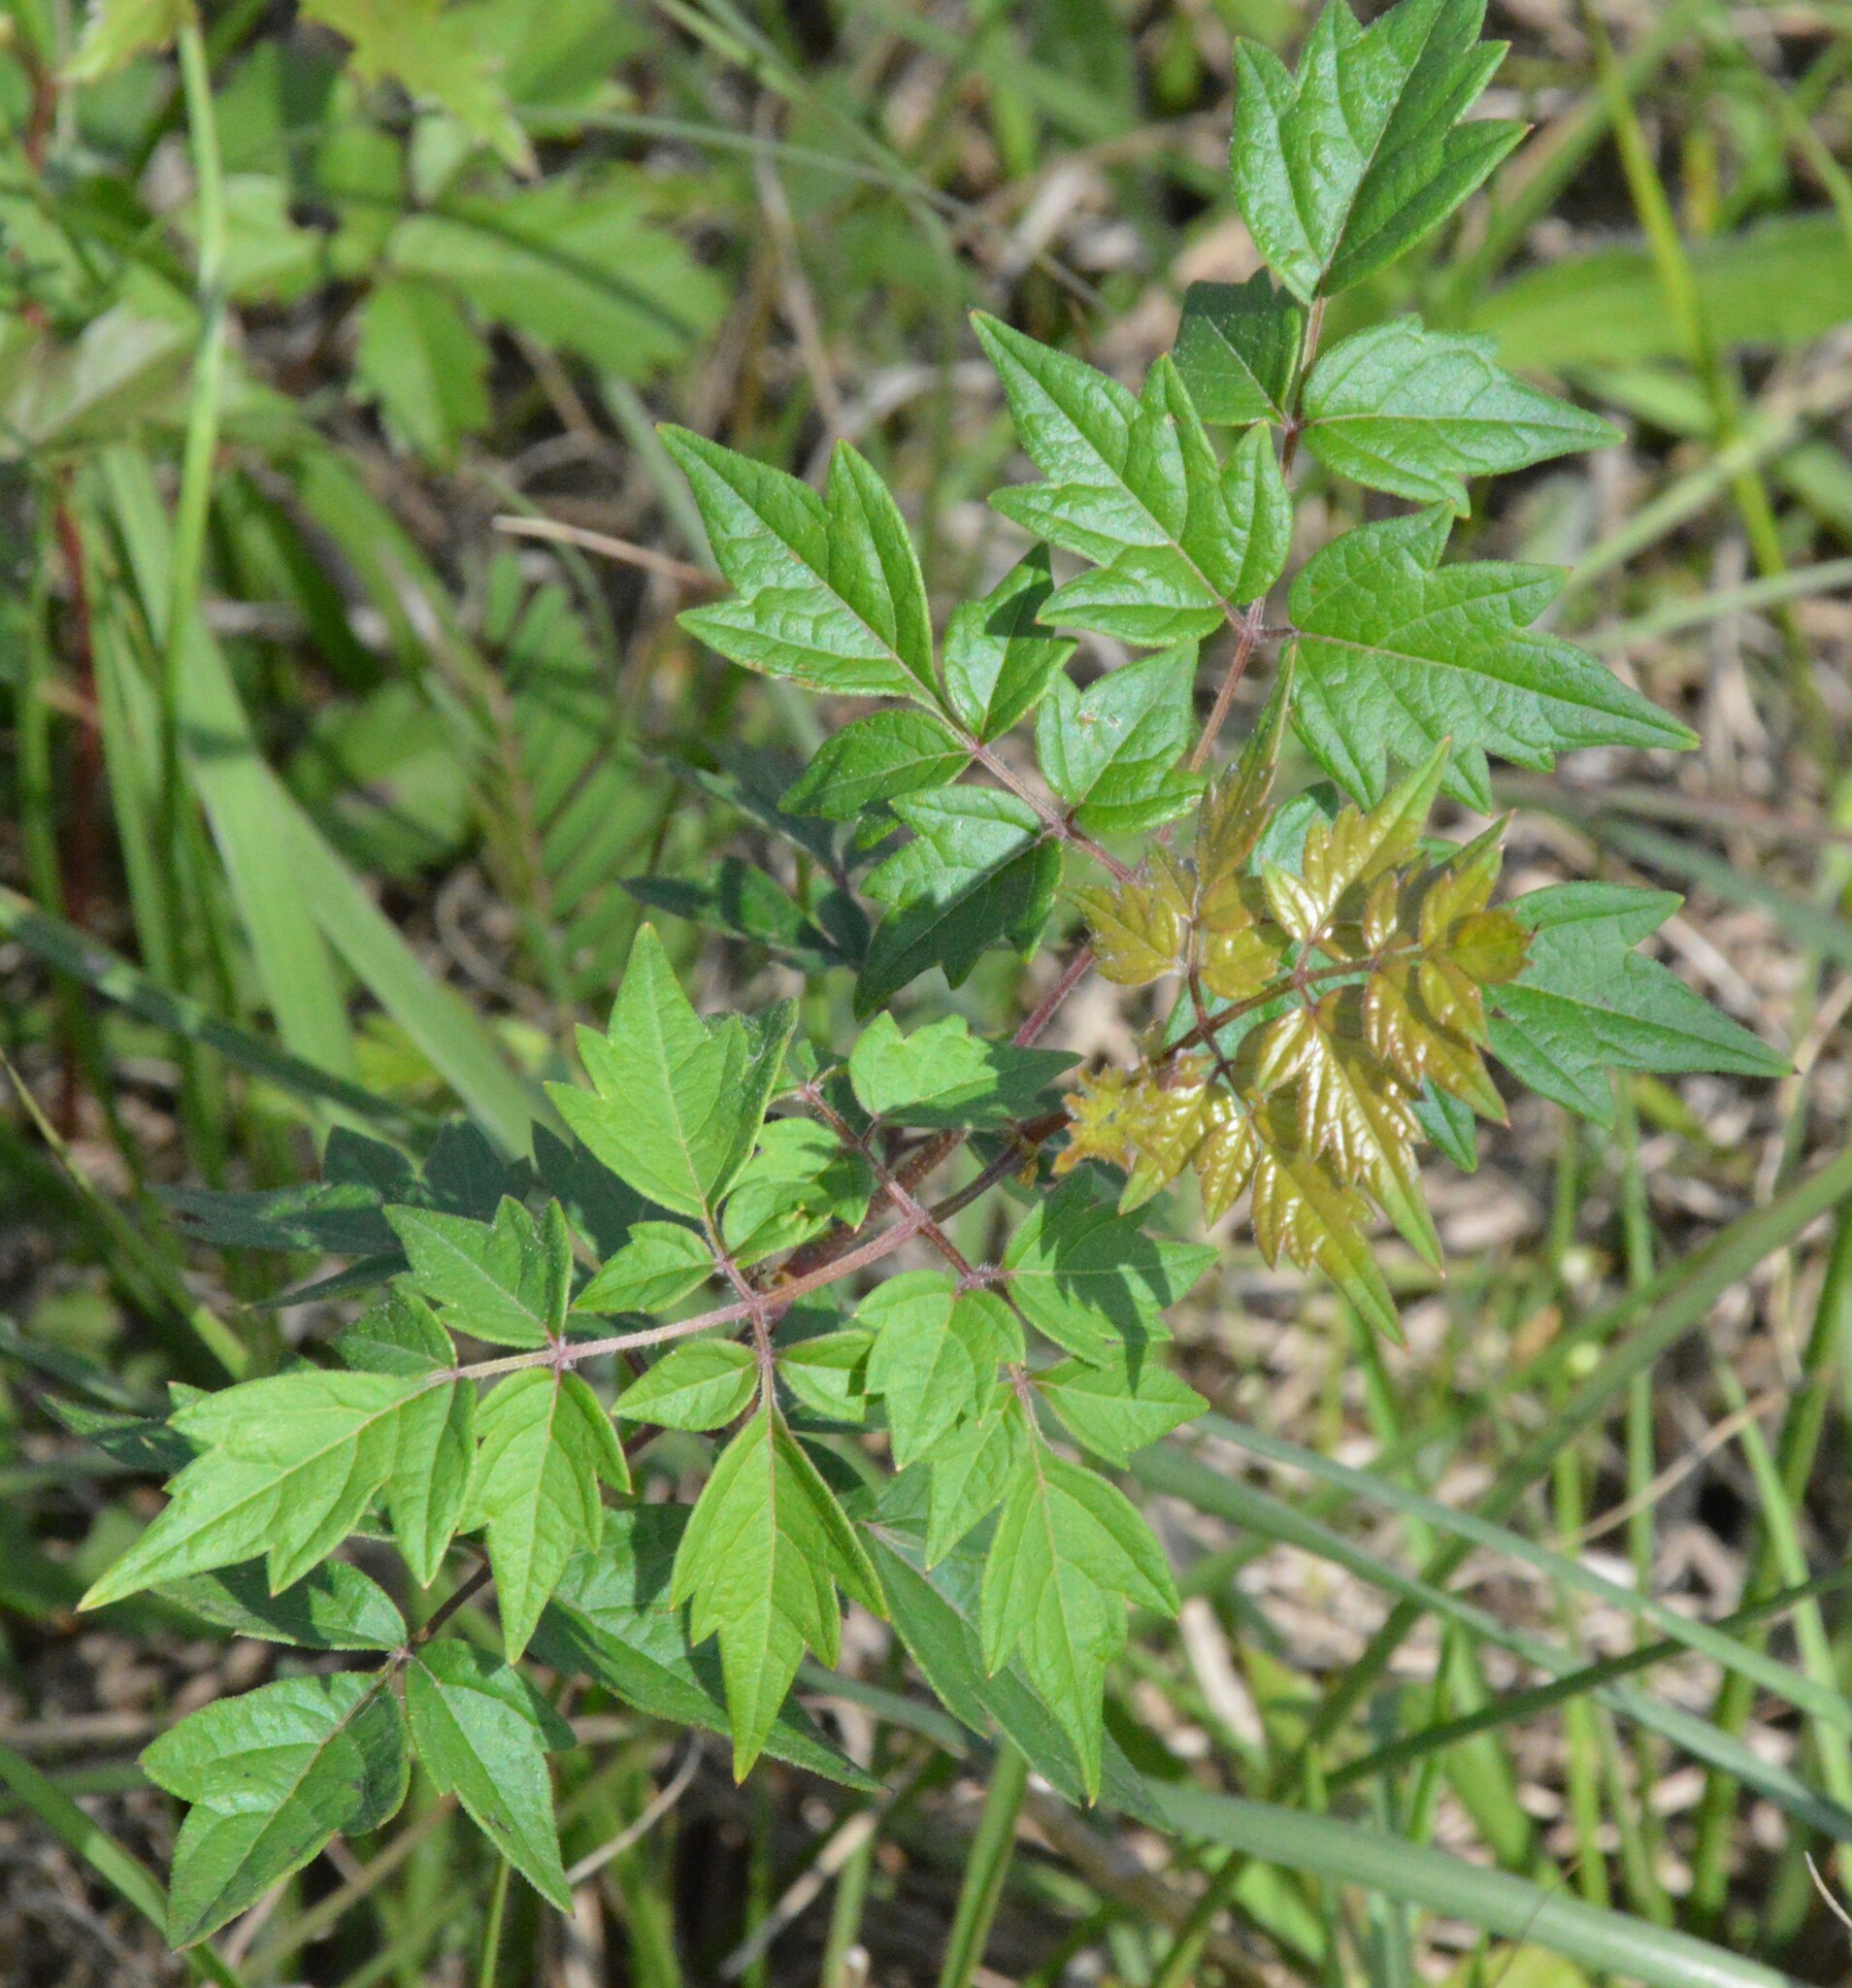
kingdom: Plantae
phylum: Tracheophyta
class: Magnoliopsida
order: Vitales
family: Vitaceae
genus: Nekemias
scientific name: Nekemias arborea
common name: Peppervine
